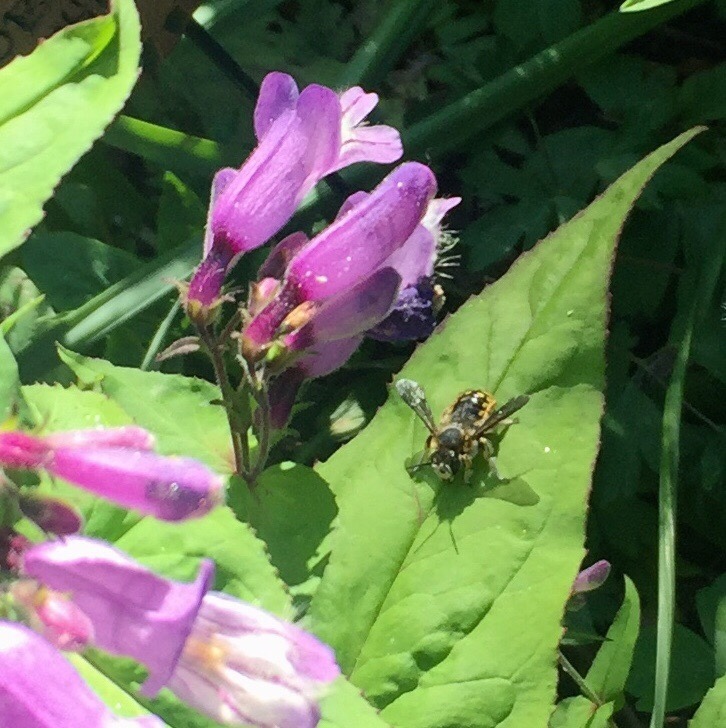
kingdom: Animalia
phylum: Arthropoda
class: Insecta
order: Hymenoptera
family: Megachilidae
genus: Anthidium
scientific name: Anthidium manicatum
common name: Wool carder bee
